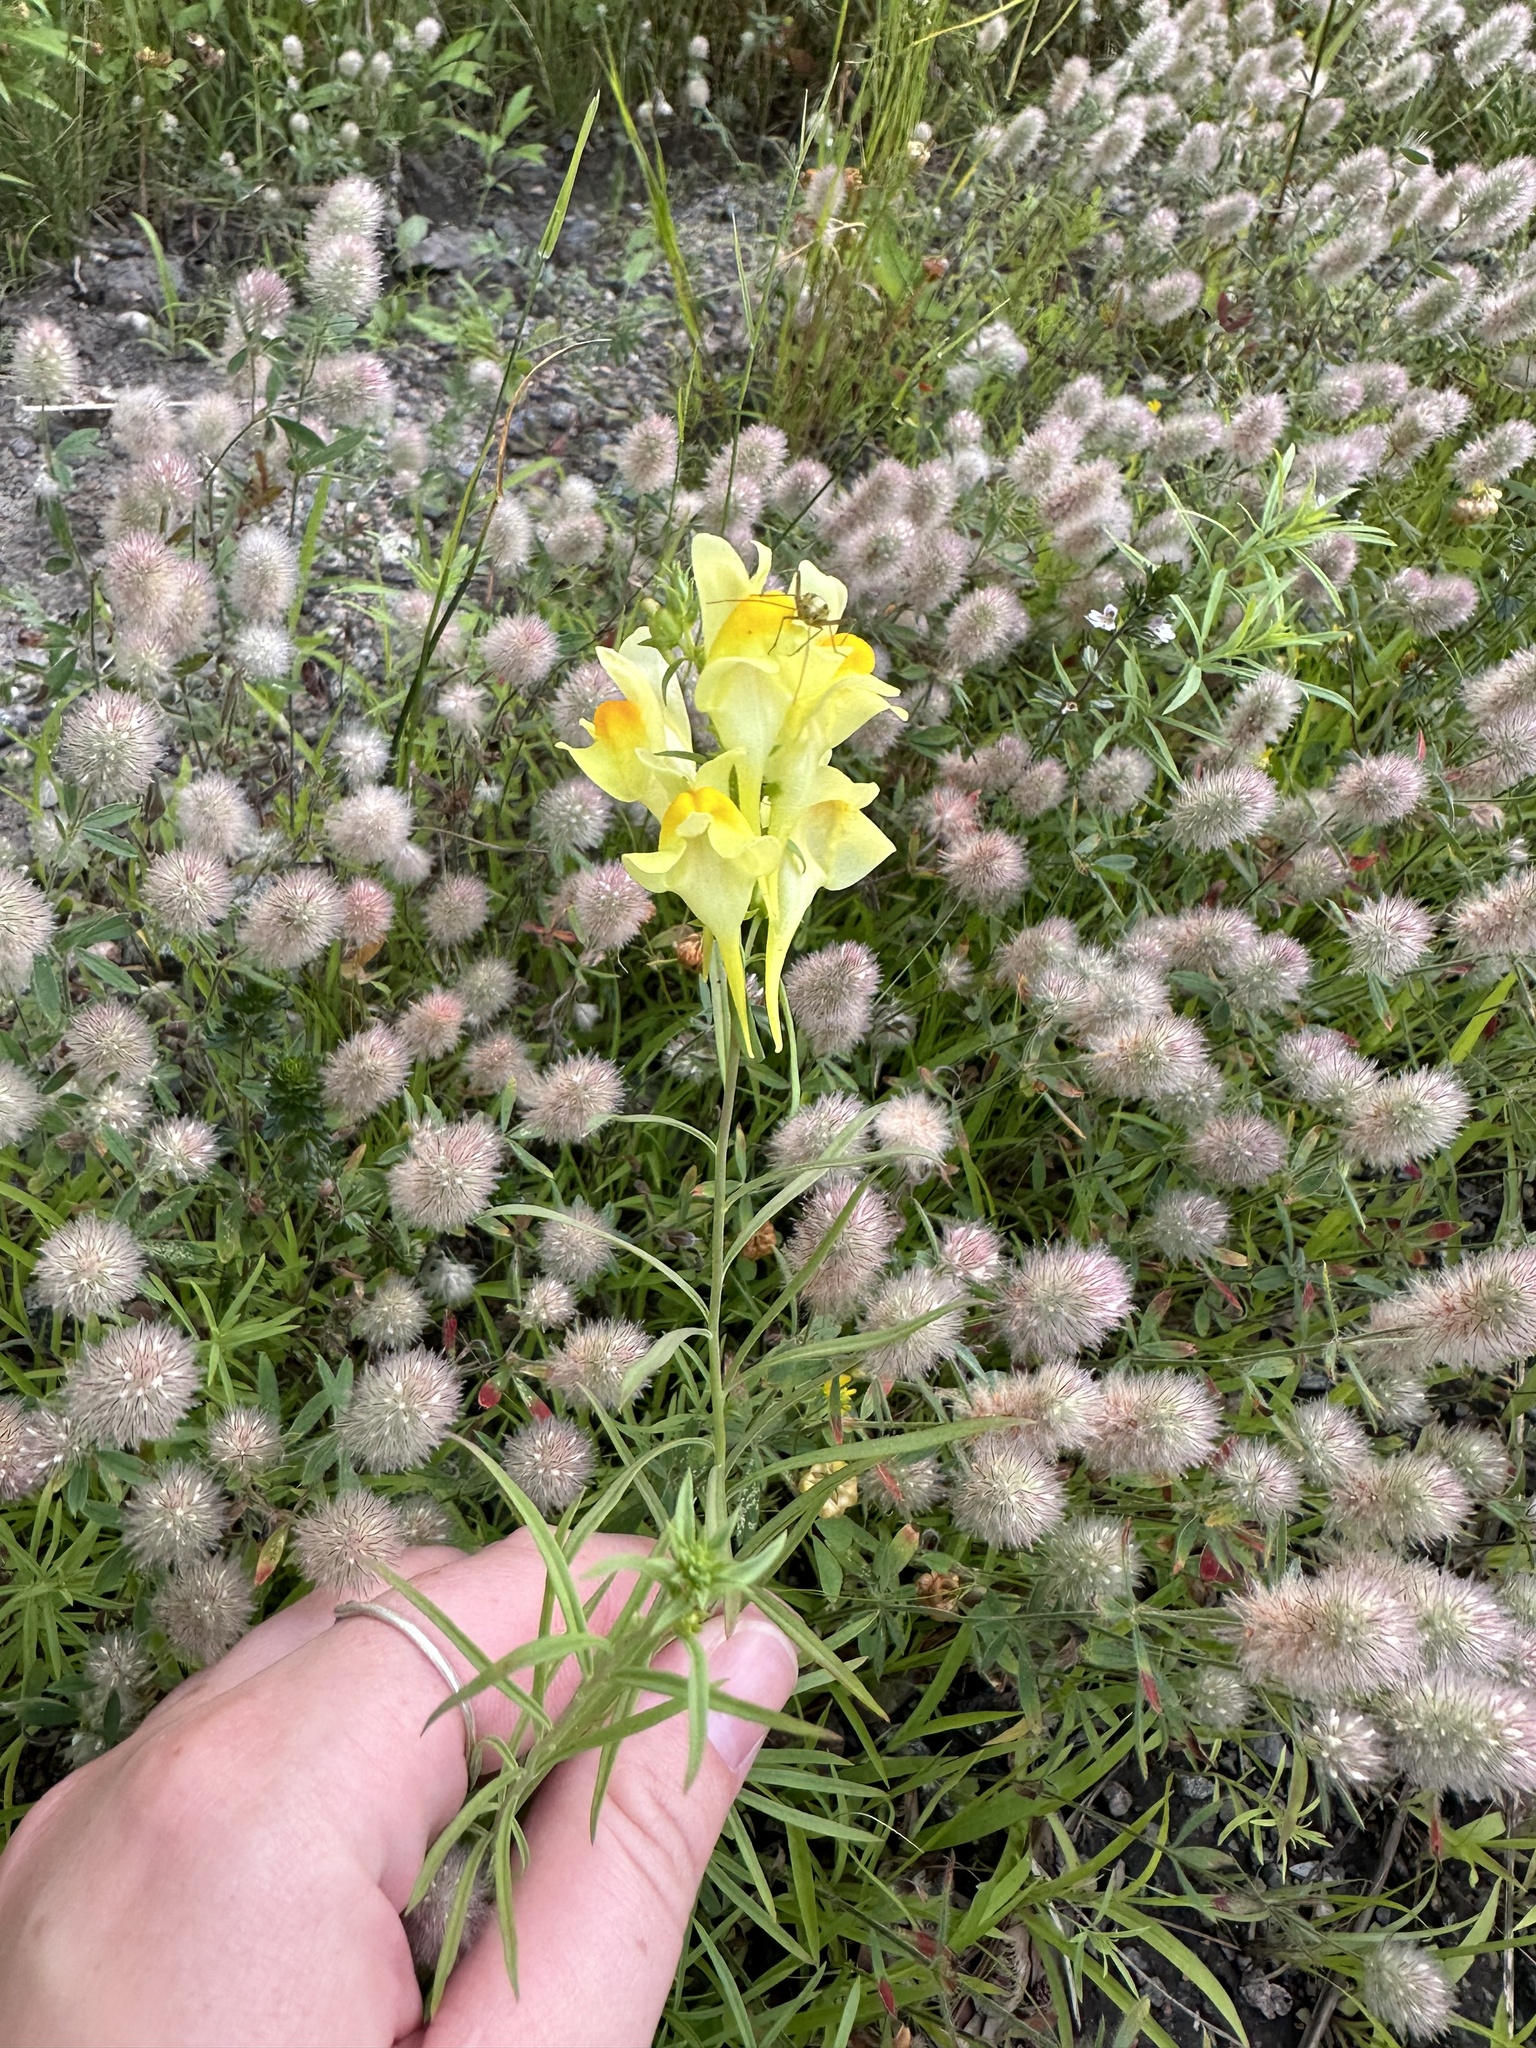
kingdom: Plantae
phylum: Tracheophyta
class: Magnoliopsida
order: Lamiales
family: Plantaginaceae
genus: Linaria
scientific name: Linaria vulgaris
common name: Butter and eggs
